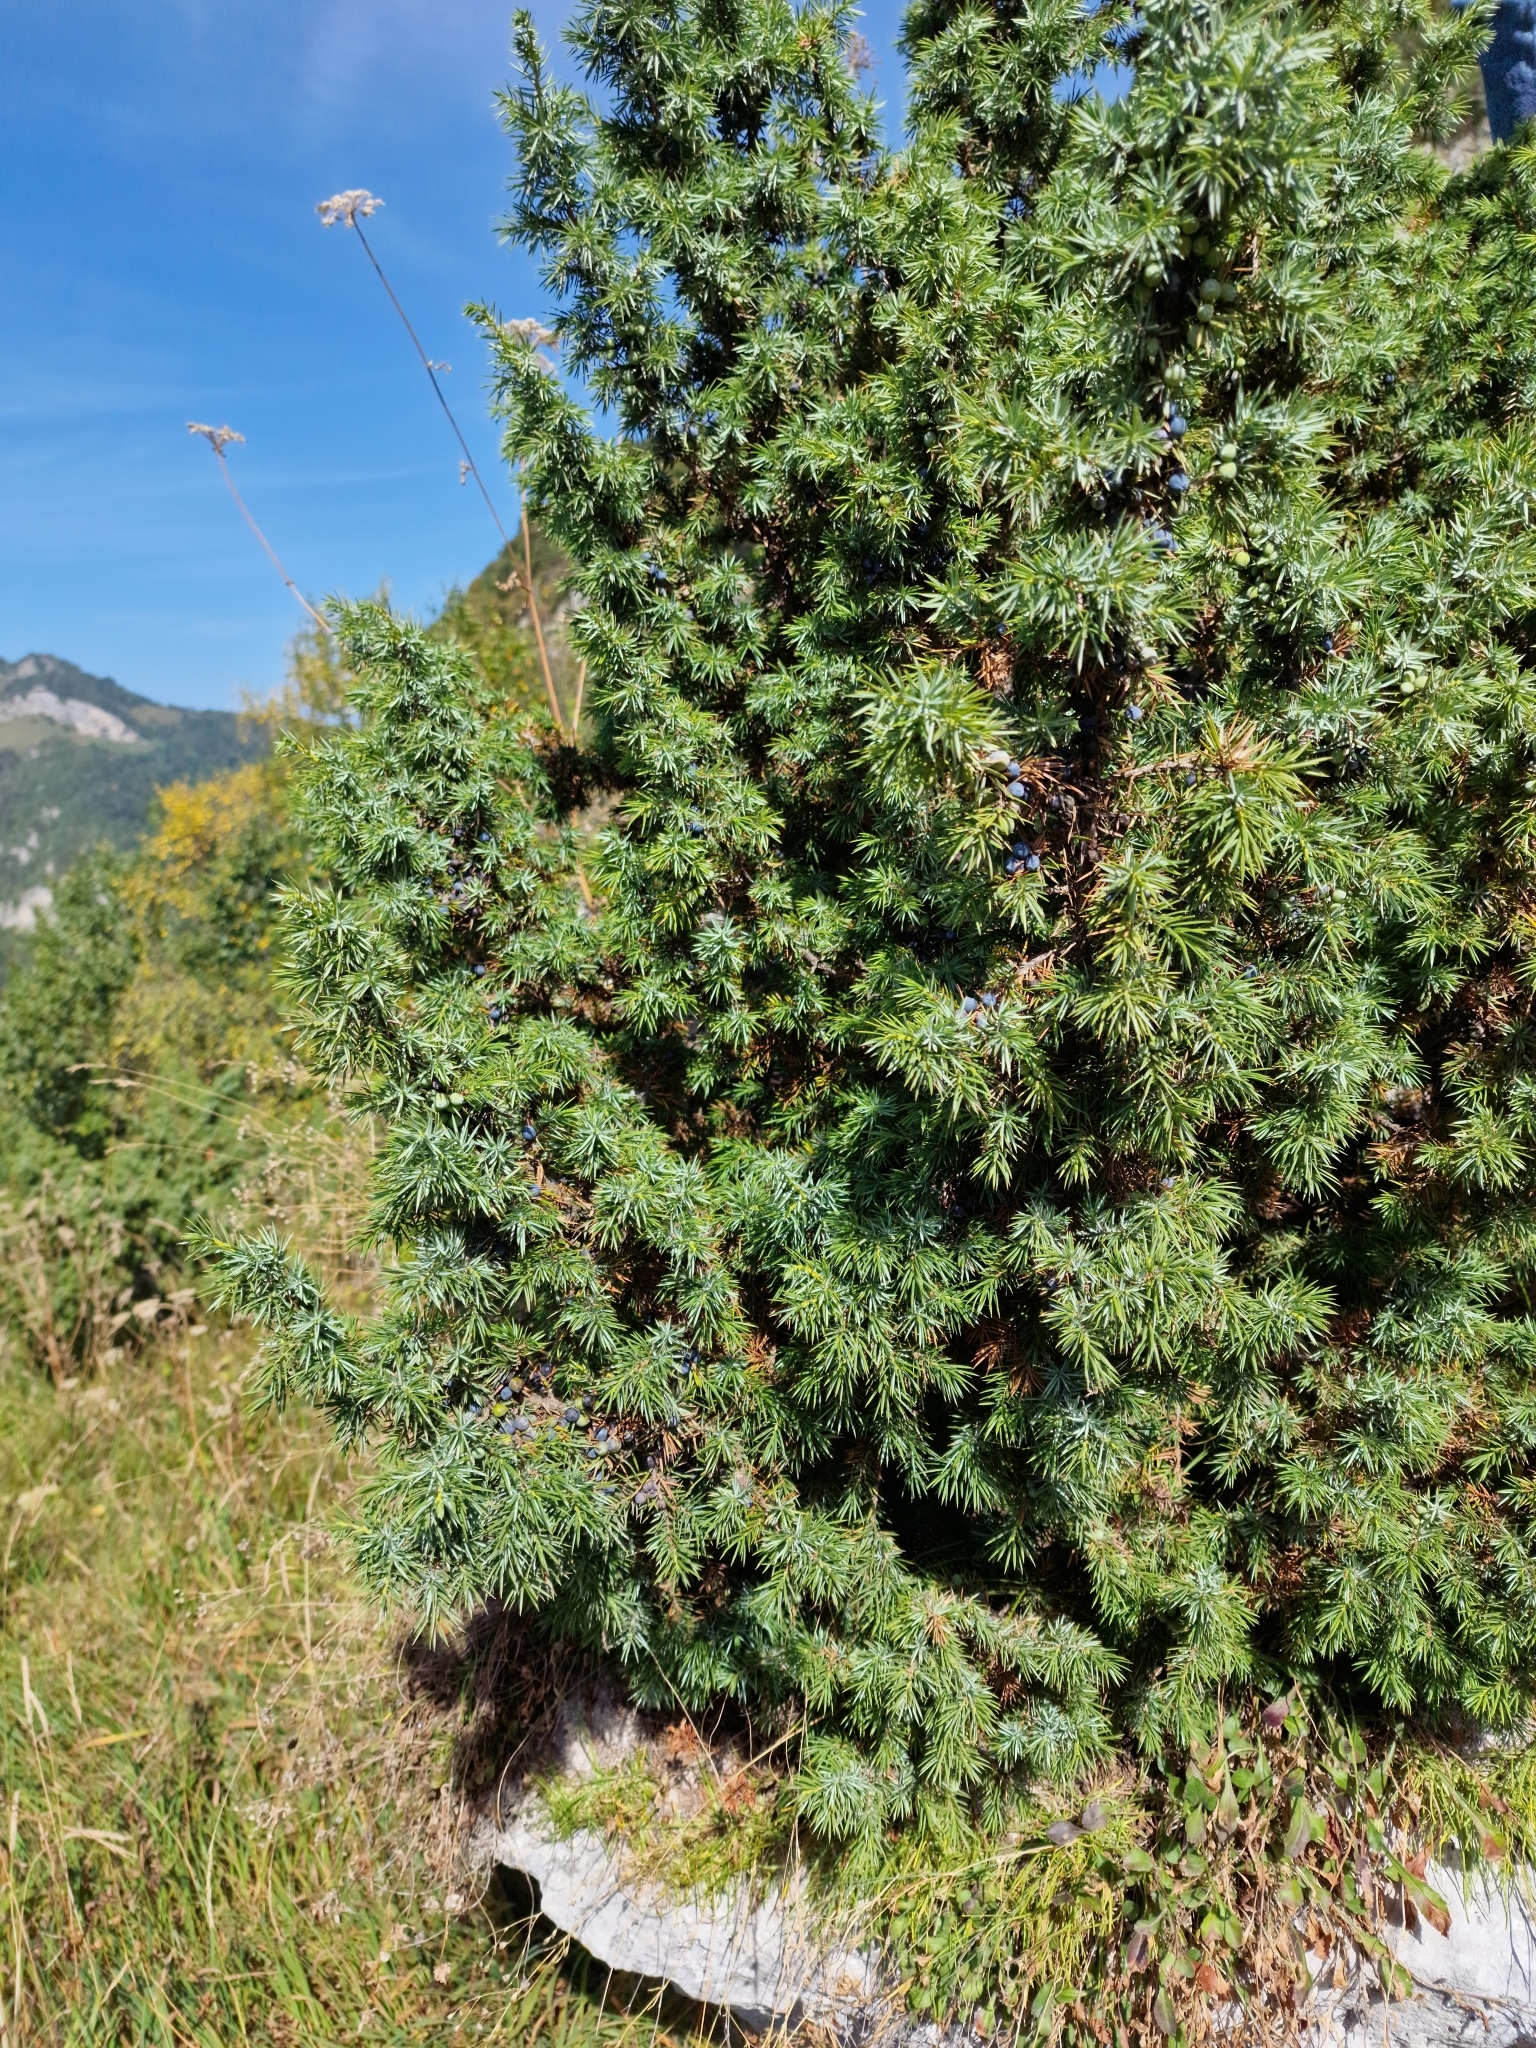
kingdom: Plantae
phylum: Tracheophyta
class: Pinopsida
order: Pinales
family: Cupressaceae
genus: Juniperus
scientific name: Juniperus communis
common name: Common juniper
